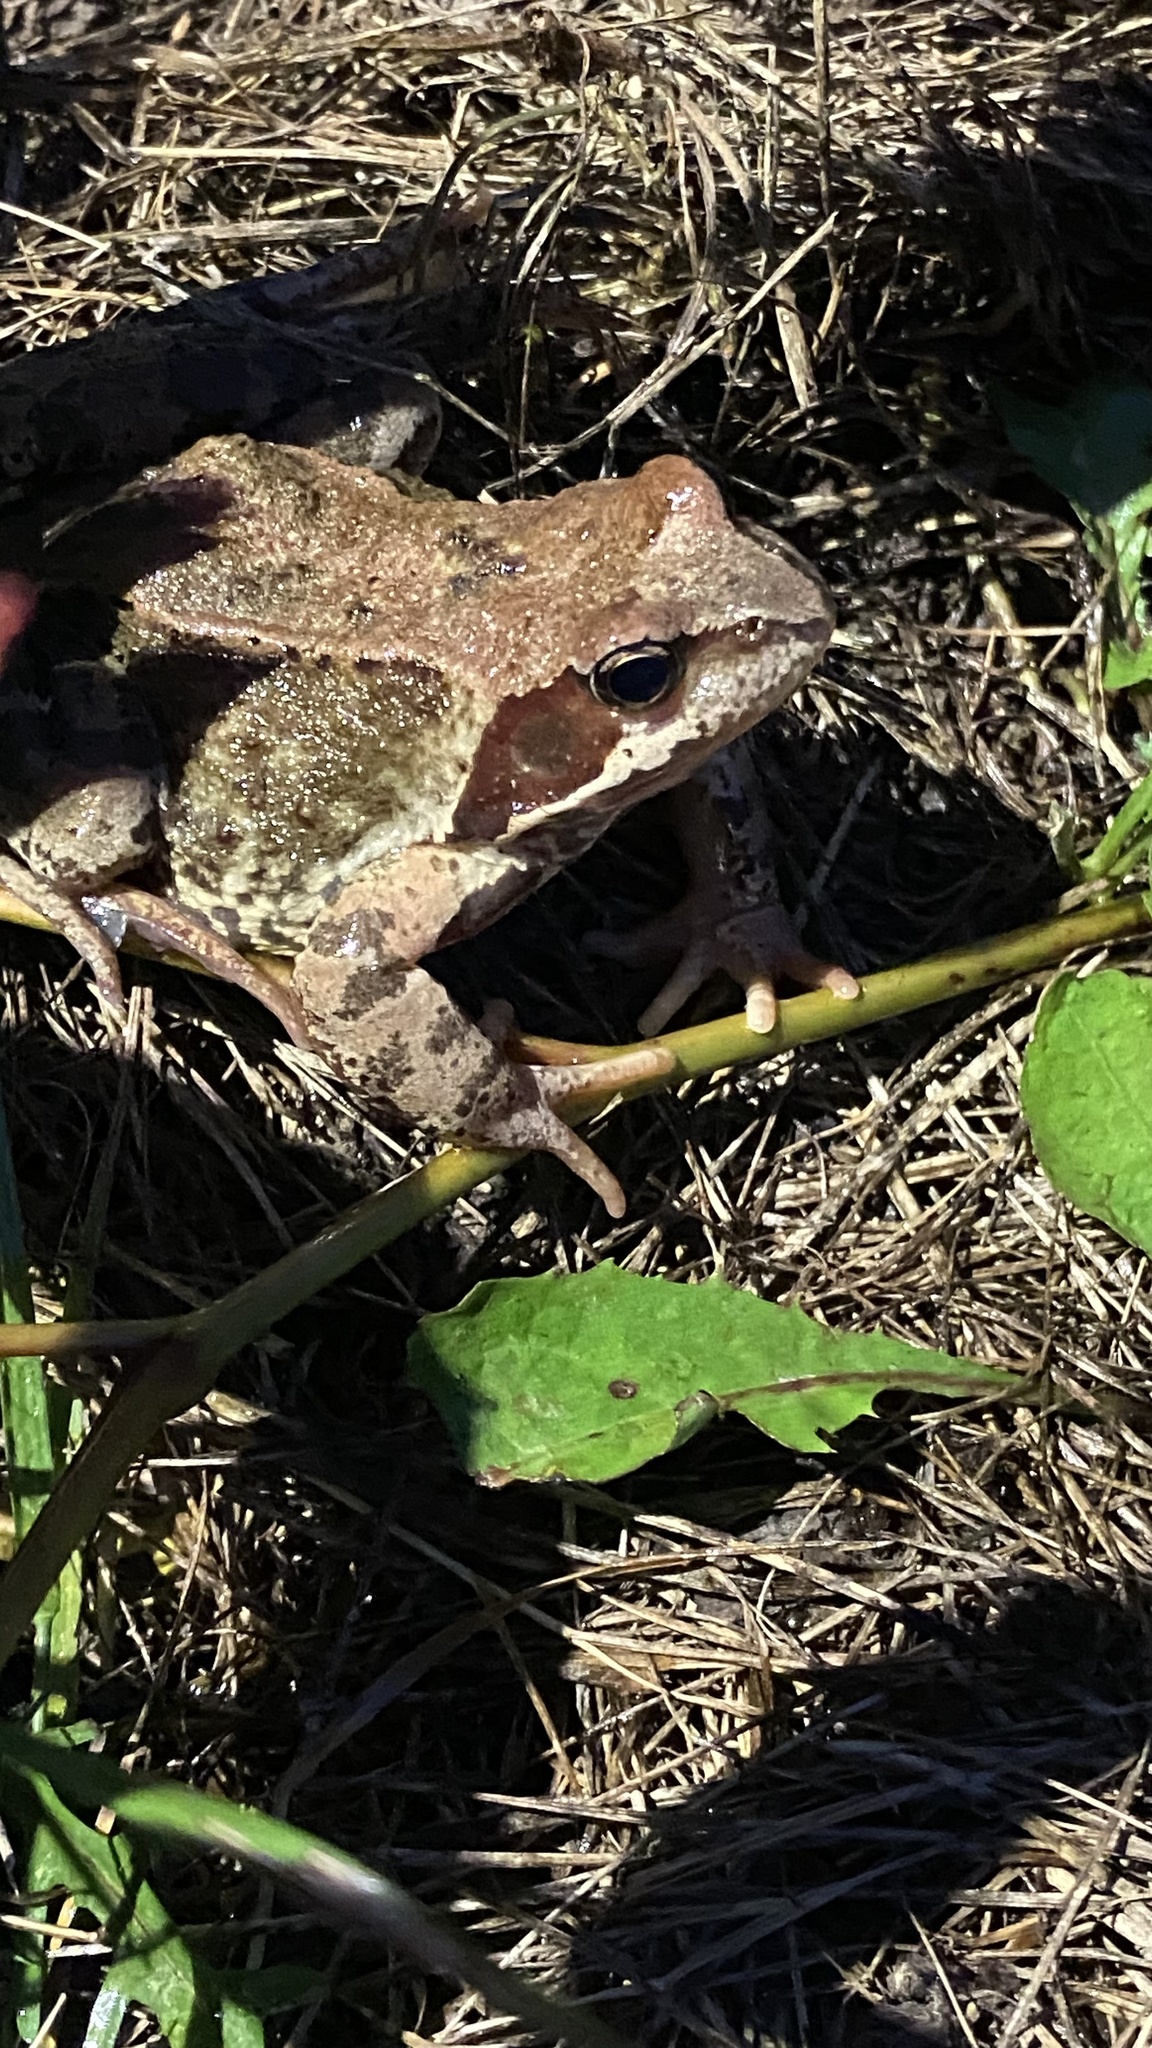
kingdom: Animalia
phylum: Chordata
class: Amphibia
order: Anura
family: Ranidae
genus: Rana
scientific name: Rana temporaria
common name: Common frog
